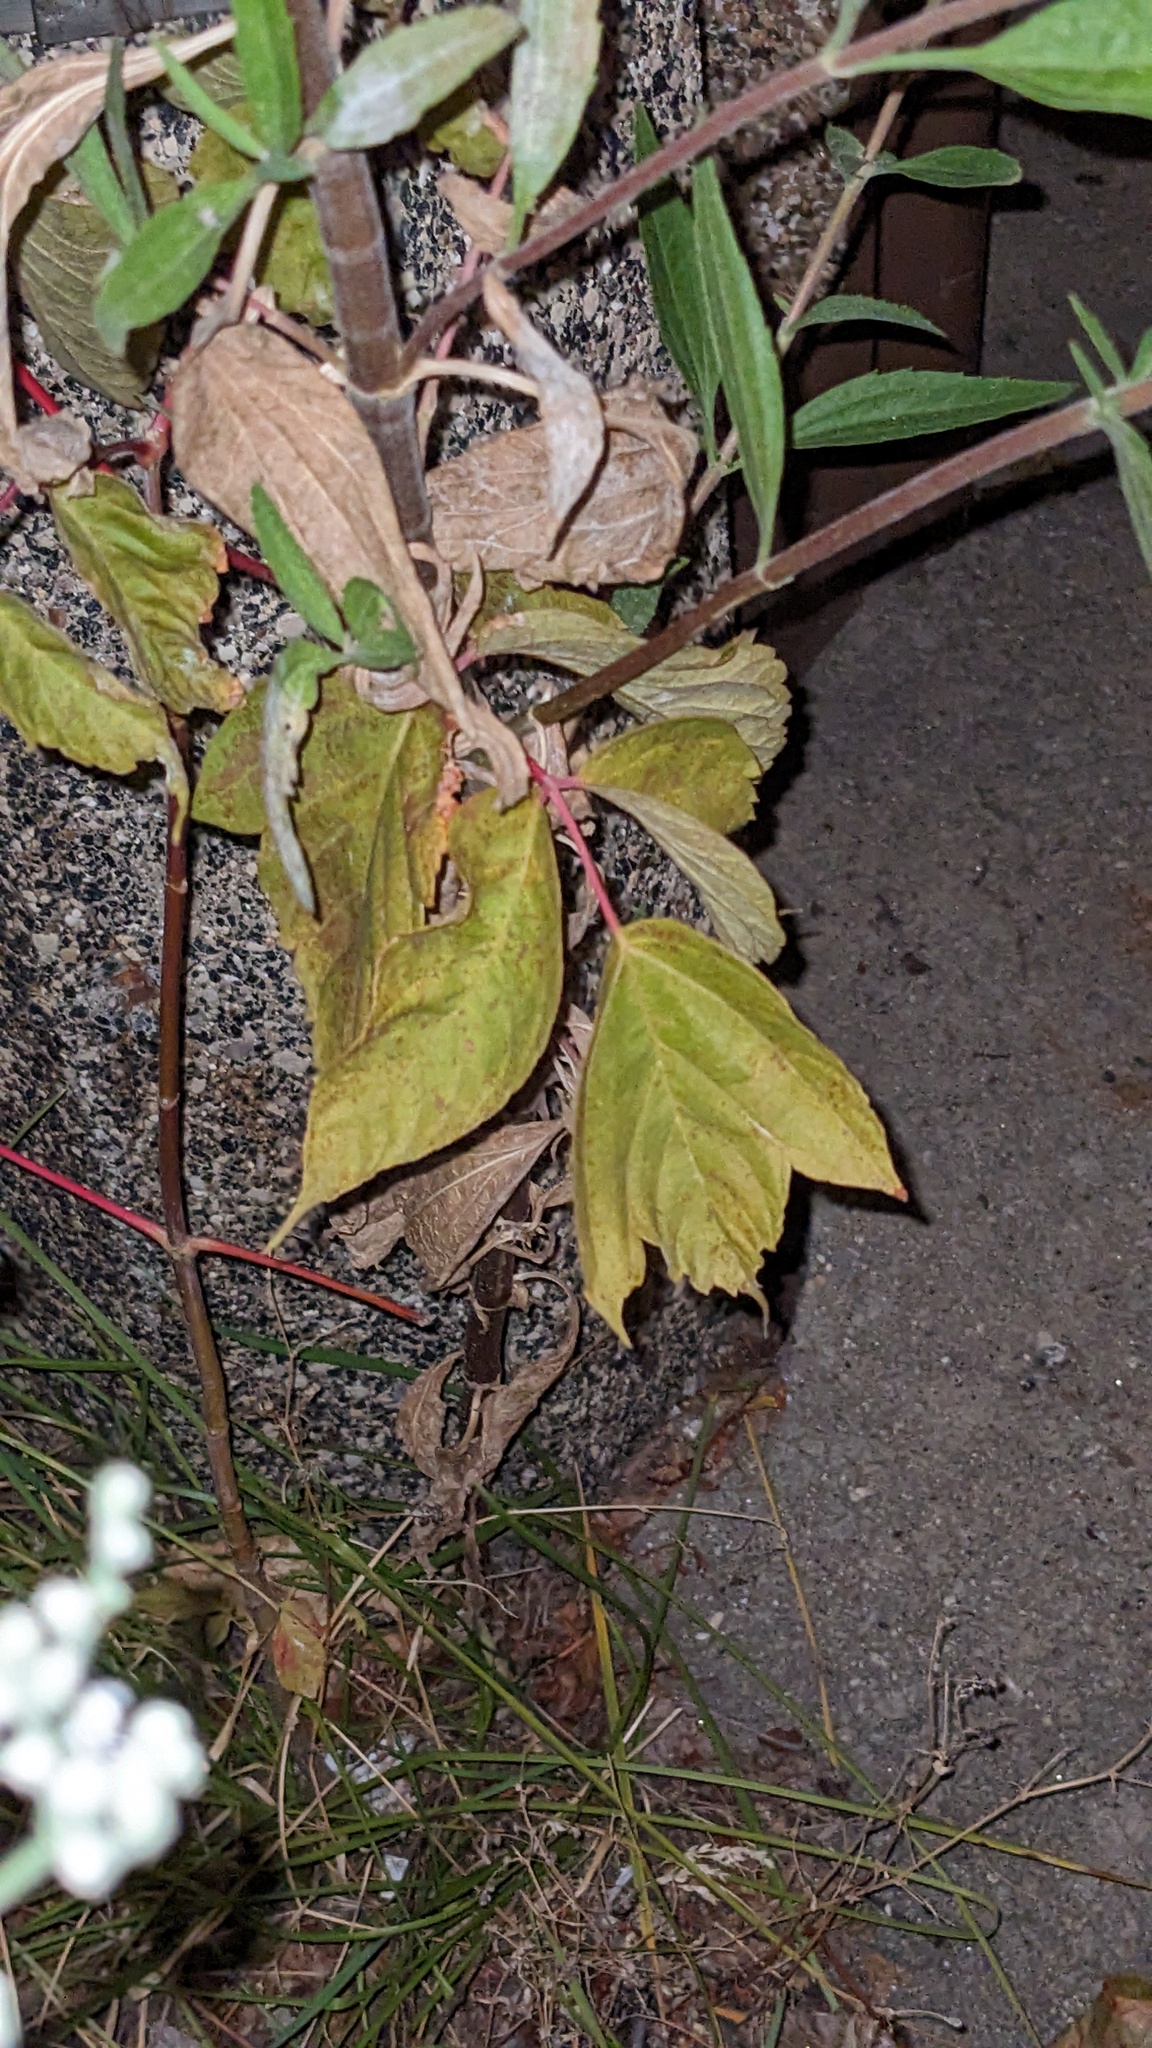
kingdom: Plantae
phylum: Tracheophyta
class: Magnoliopsida
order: Sapindales
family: Sapindaceae
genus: Acer
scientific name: Acer negundo
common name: Ashleaf maple
